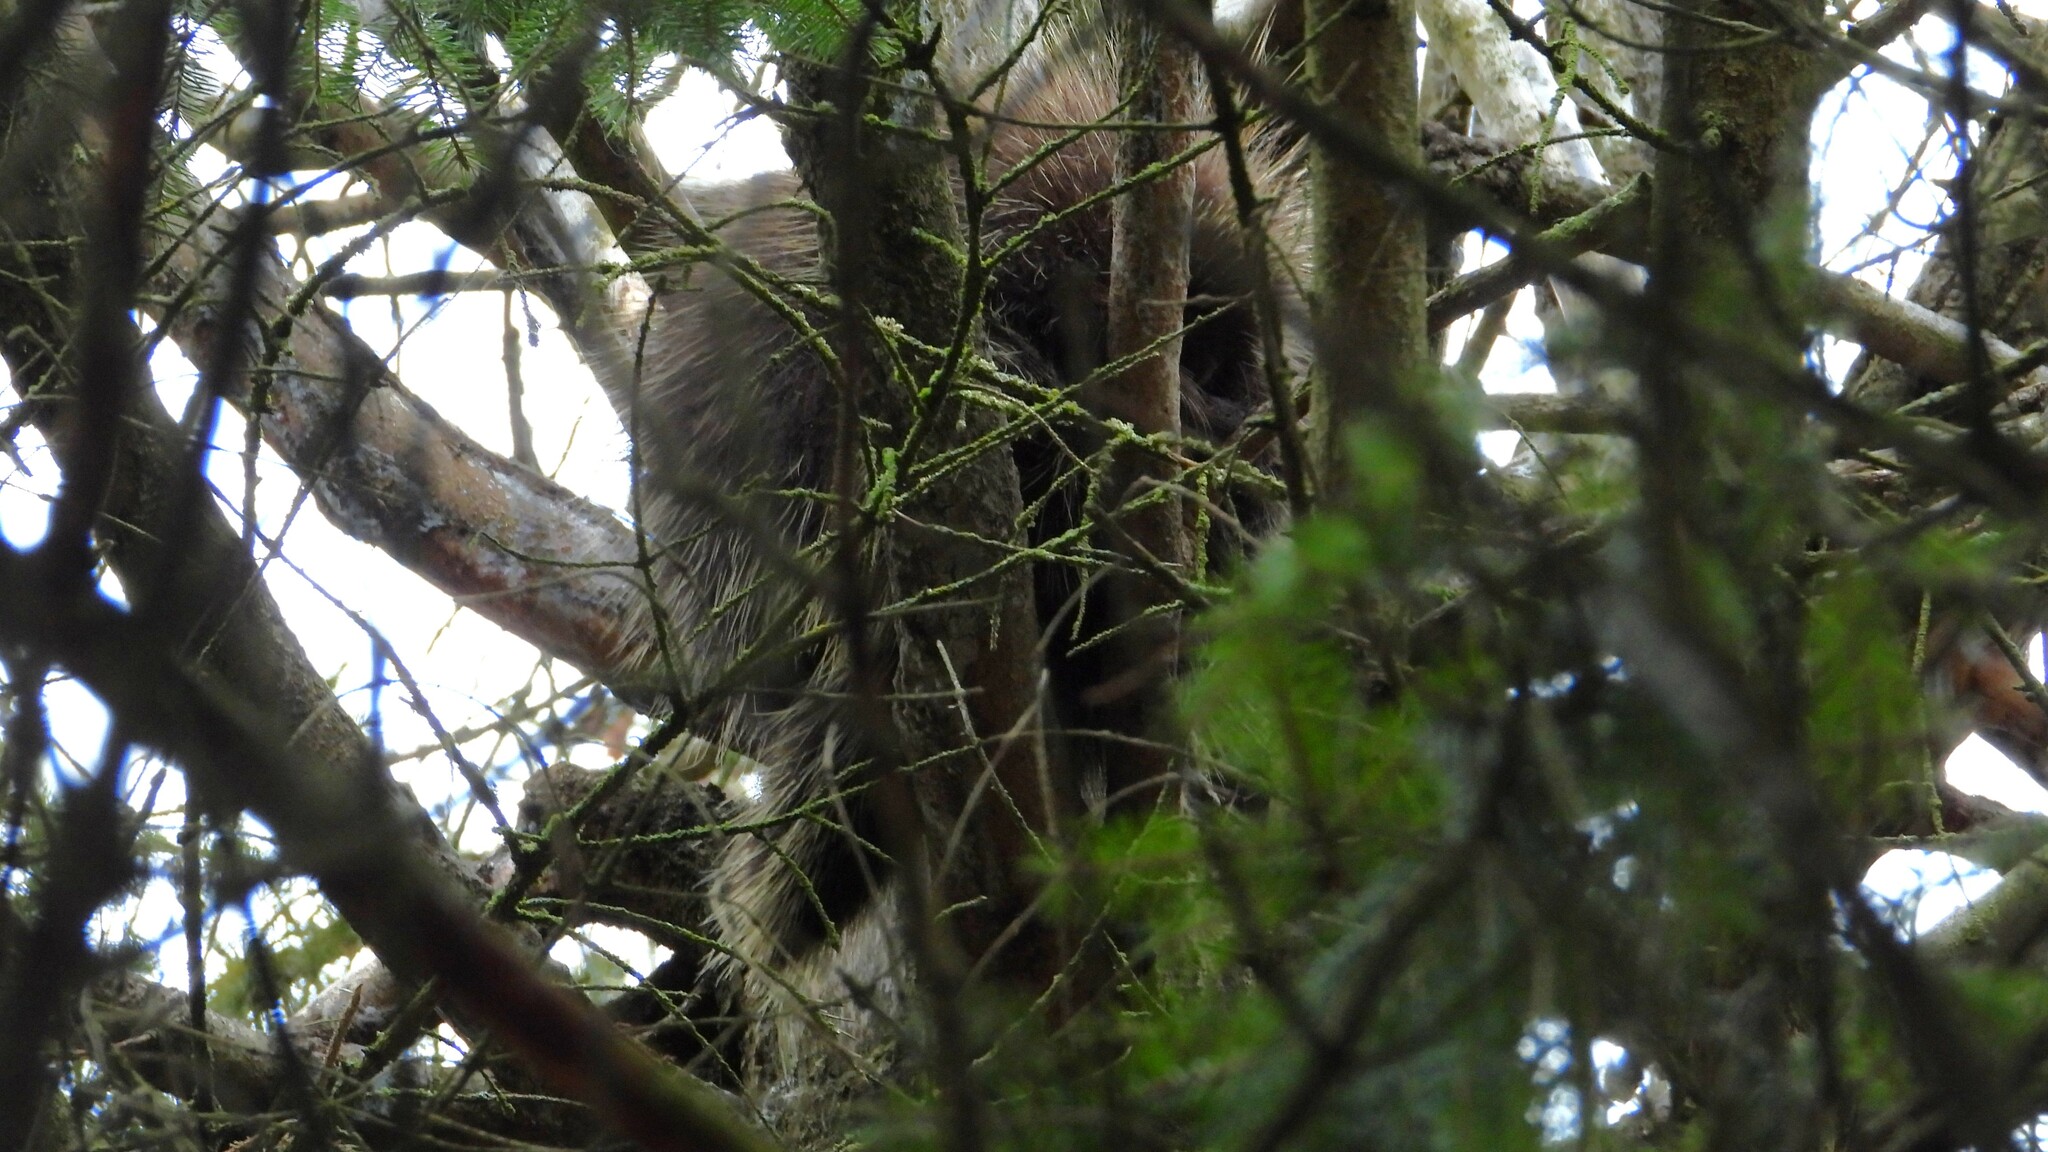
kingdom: Animalia
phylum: Chordata
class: Mammalia
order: Rodentia
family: Erethizontidae
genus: Erethizon
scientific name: Erethizon dorsatus
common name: North american porcupine
